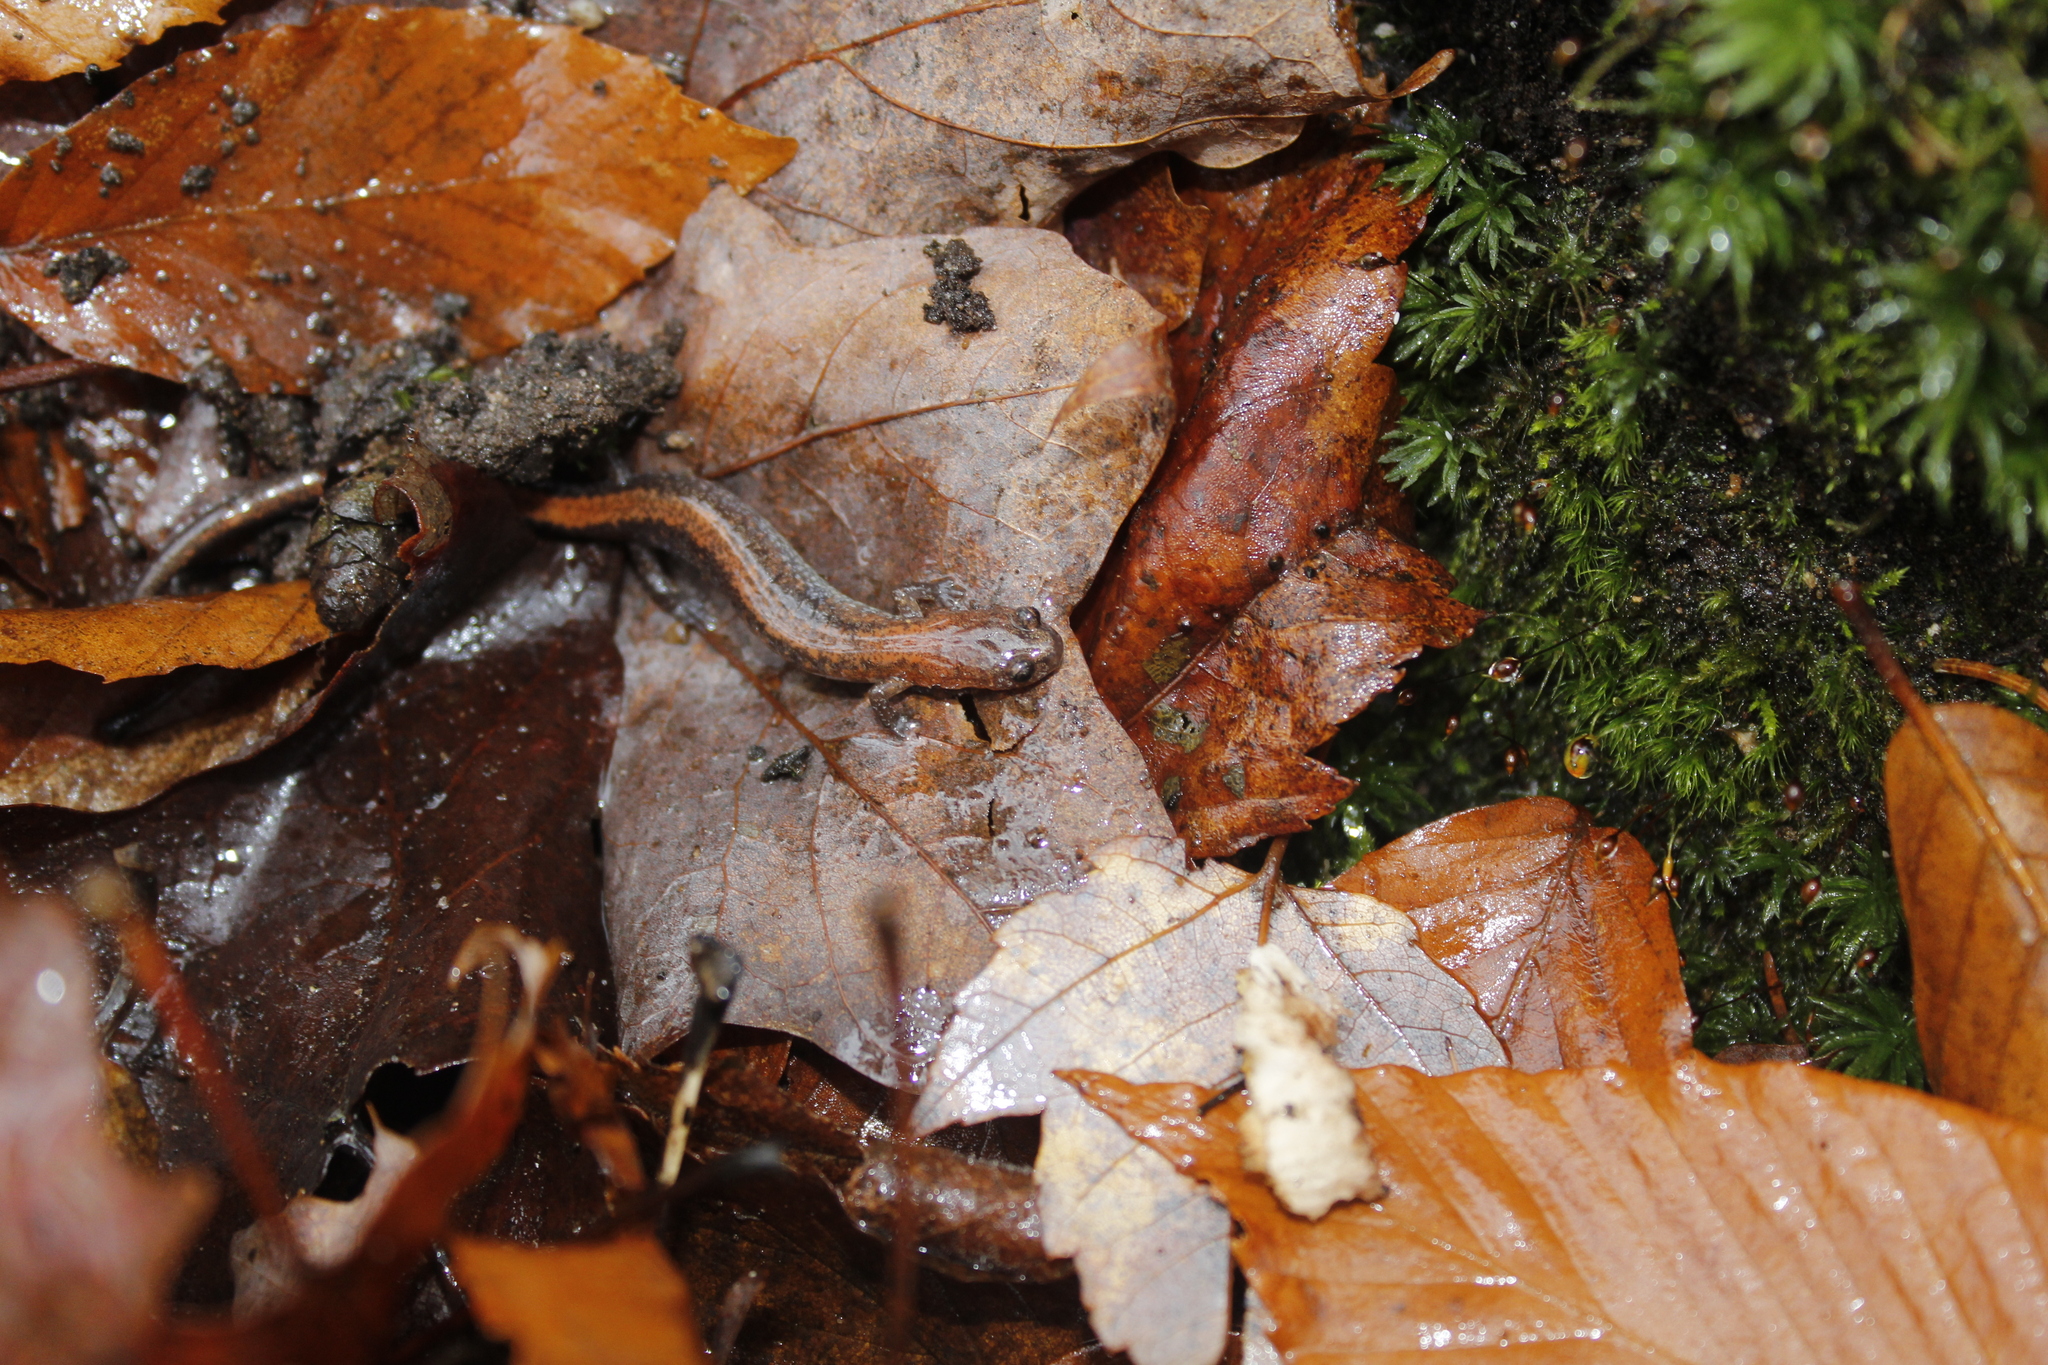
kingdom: Animalia
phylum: Chordata
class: Amphibia
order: Caudata
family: Plethodontidae
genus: Plethodon
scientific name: Plethodon cinereus
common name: Redback salamander
